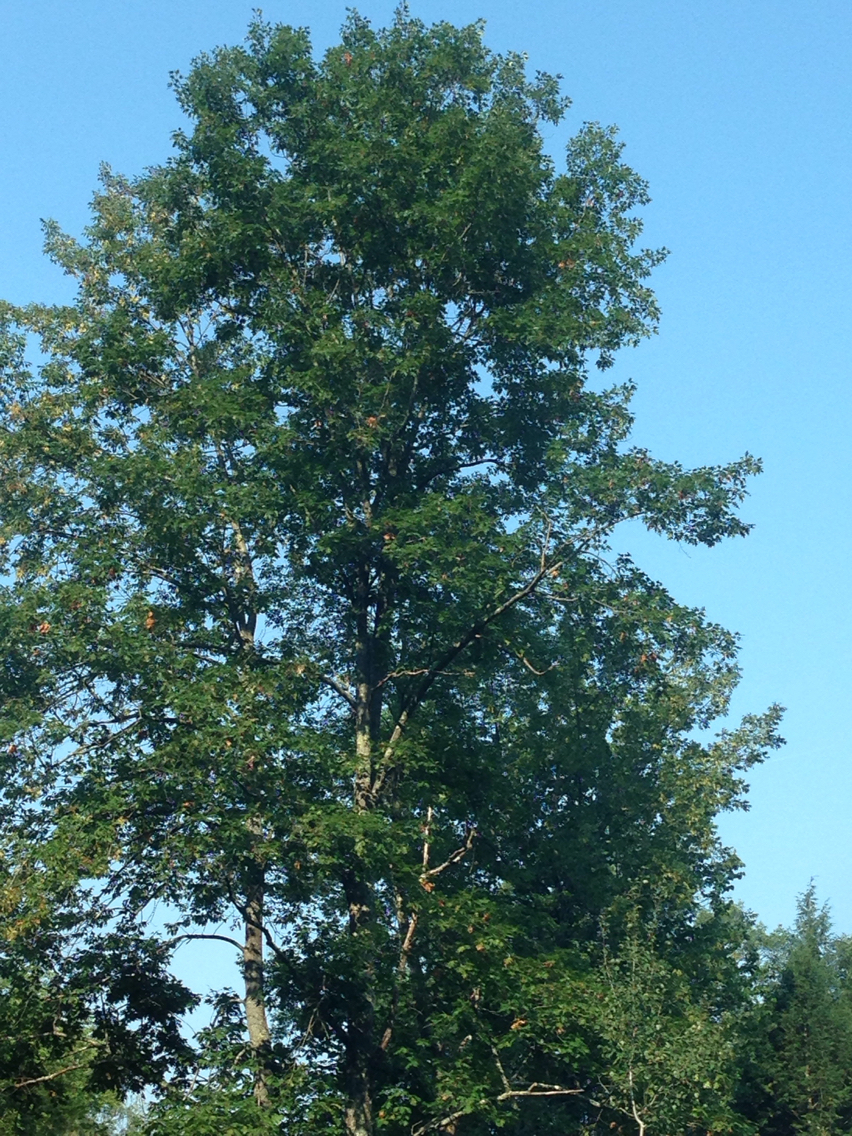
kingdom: Plantae
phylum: Tracheophyta
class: Magnoliopsida
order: Fagales
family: Fagaceae
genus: Quercus
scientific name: Quercus rubra
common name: Red oak
